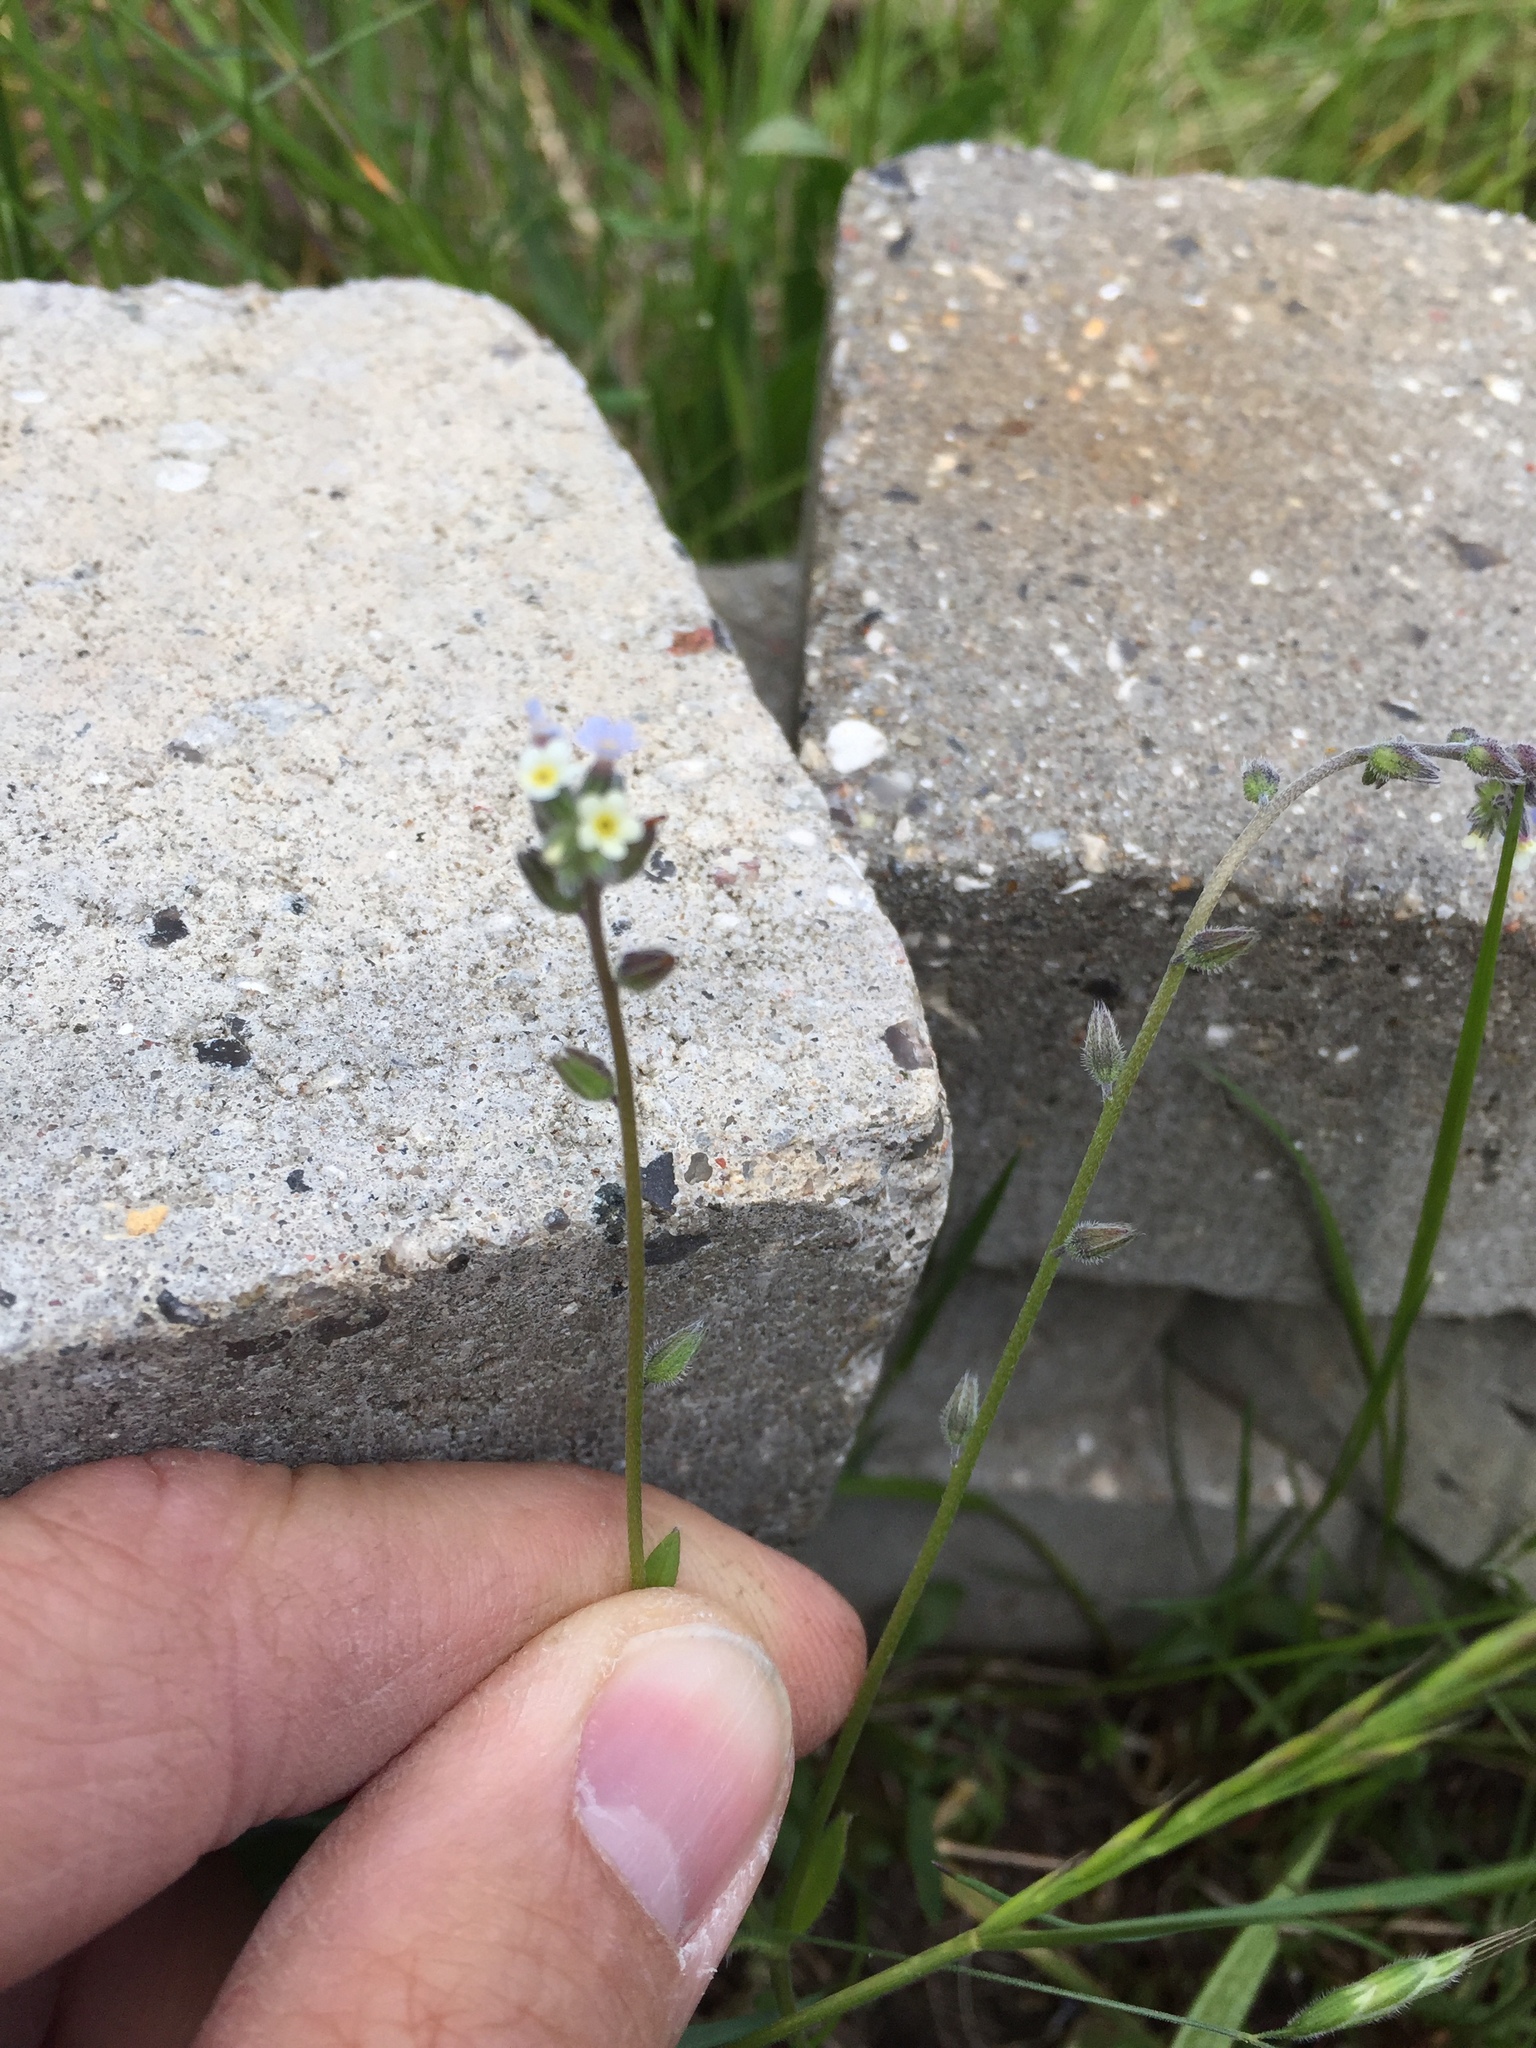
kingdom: Plantae
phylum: Tracheophyta
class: Magnoliopsida
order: Boraginales
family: Boraginaceae
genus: Myosotis
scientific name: Myosotis discolor
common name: Changing forget-me-not
